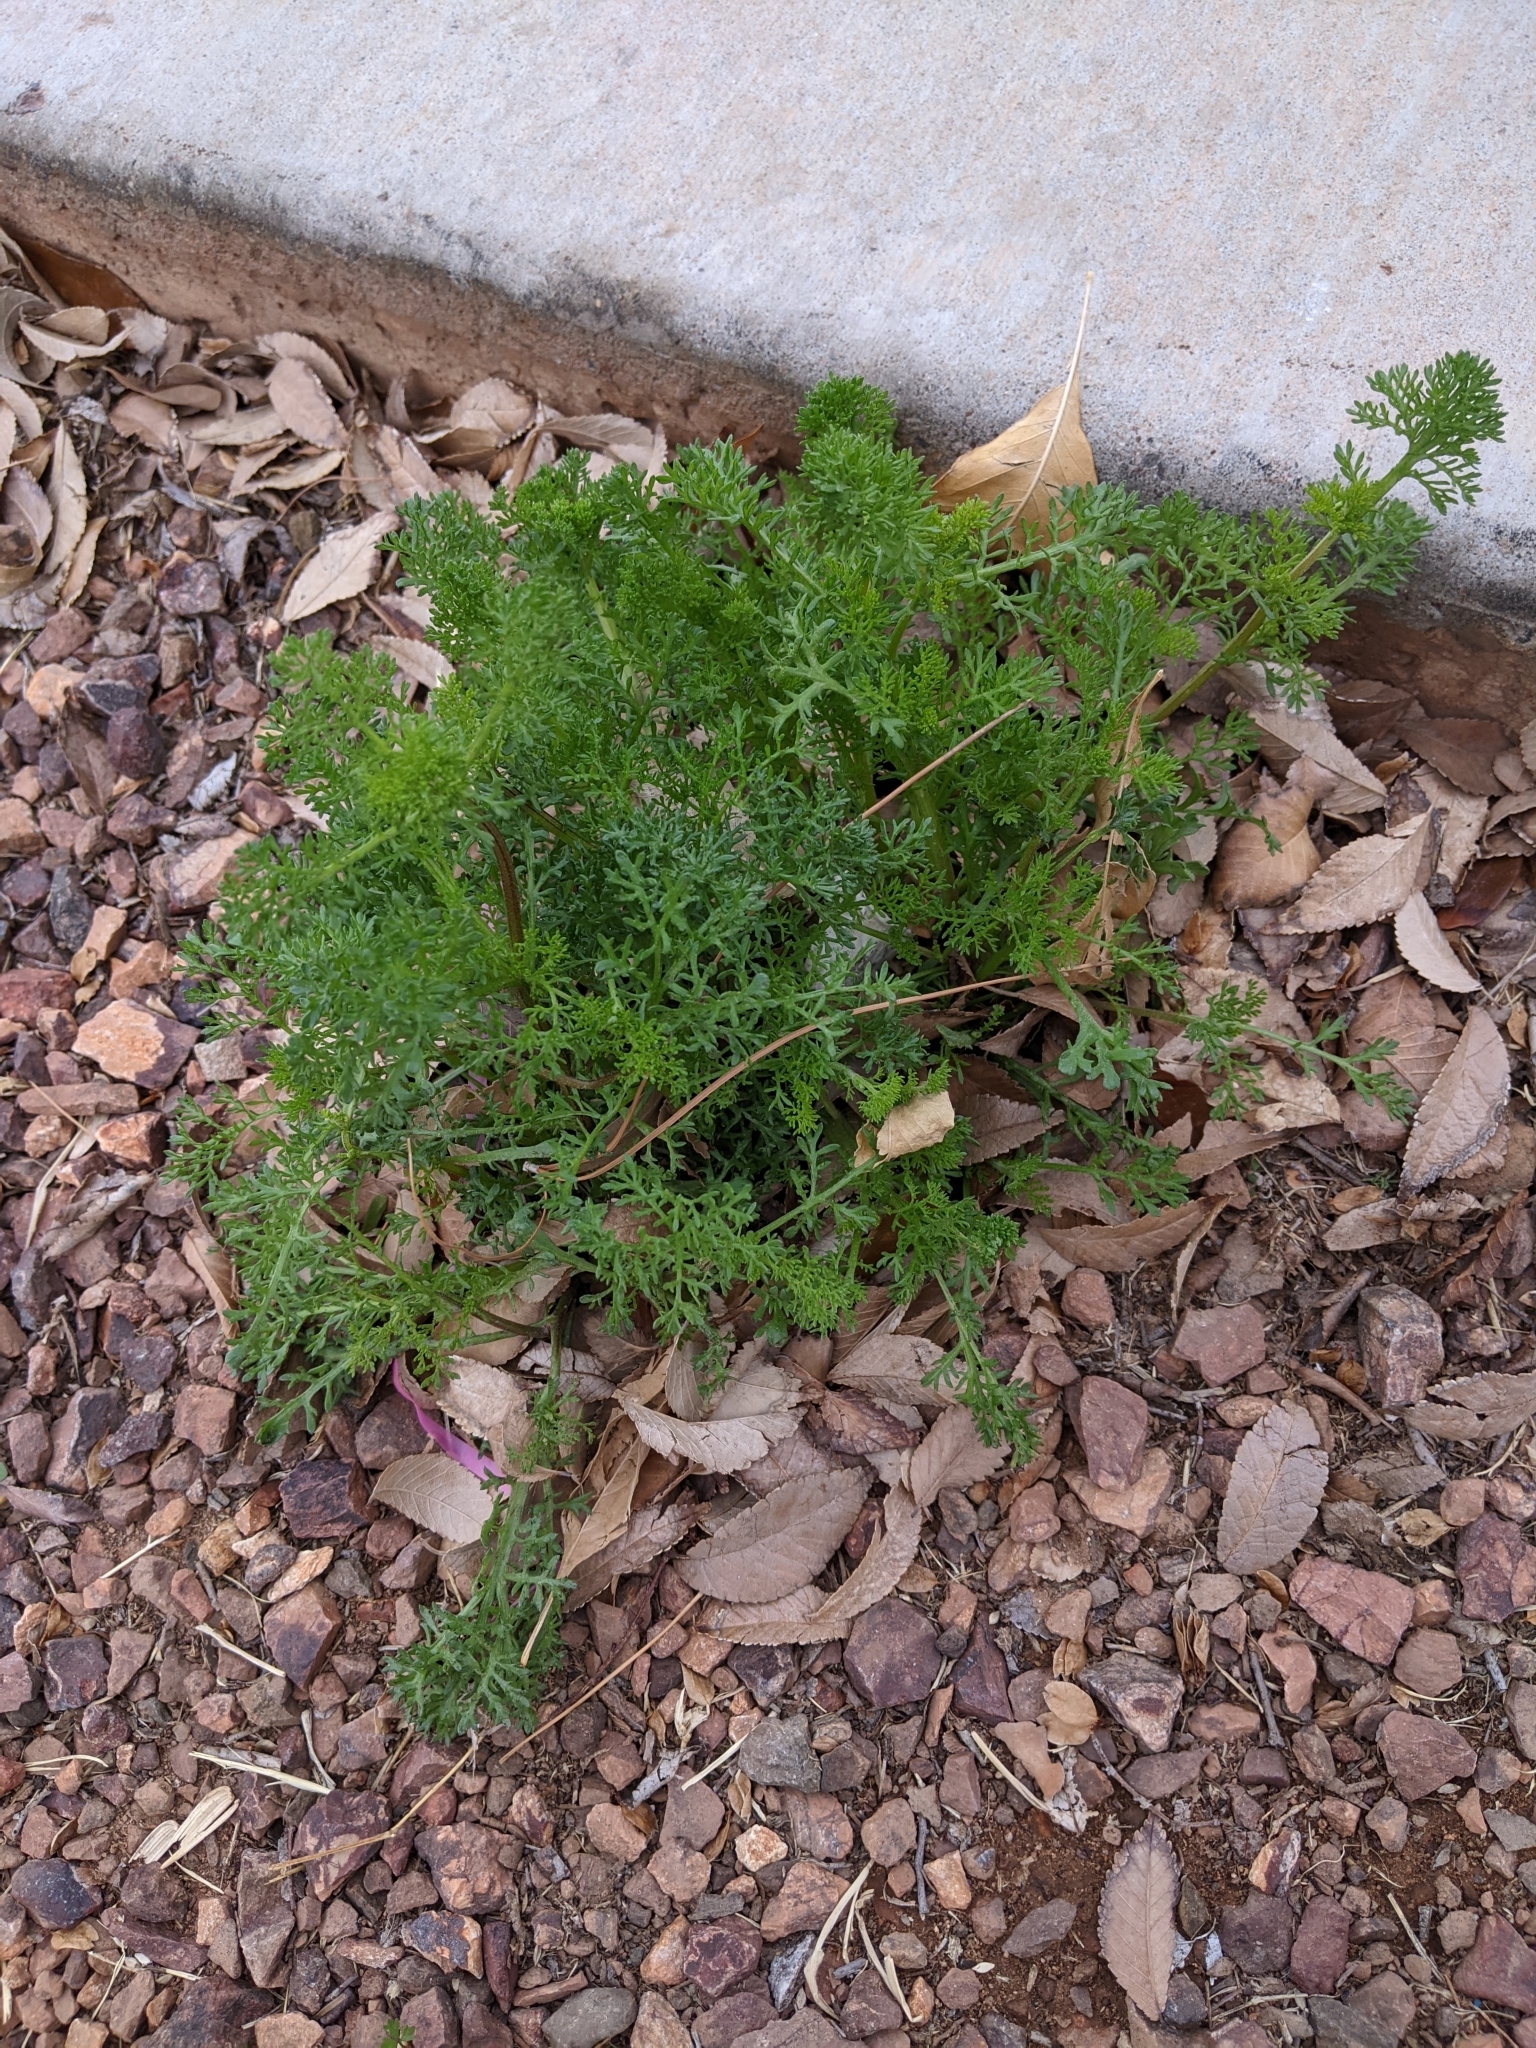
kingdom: Plantae
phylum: Tracheophyta
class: Magnoliopsida
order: Asterales
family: Asteraceae
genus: Oncosiphon
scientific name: Oncosiphon pilulifer
